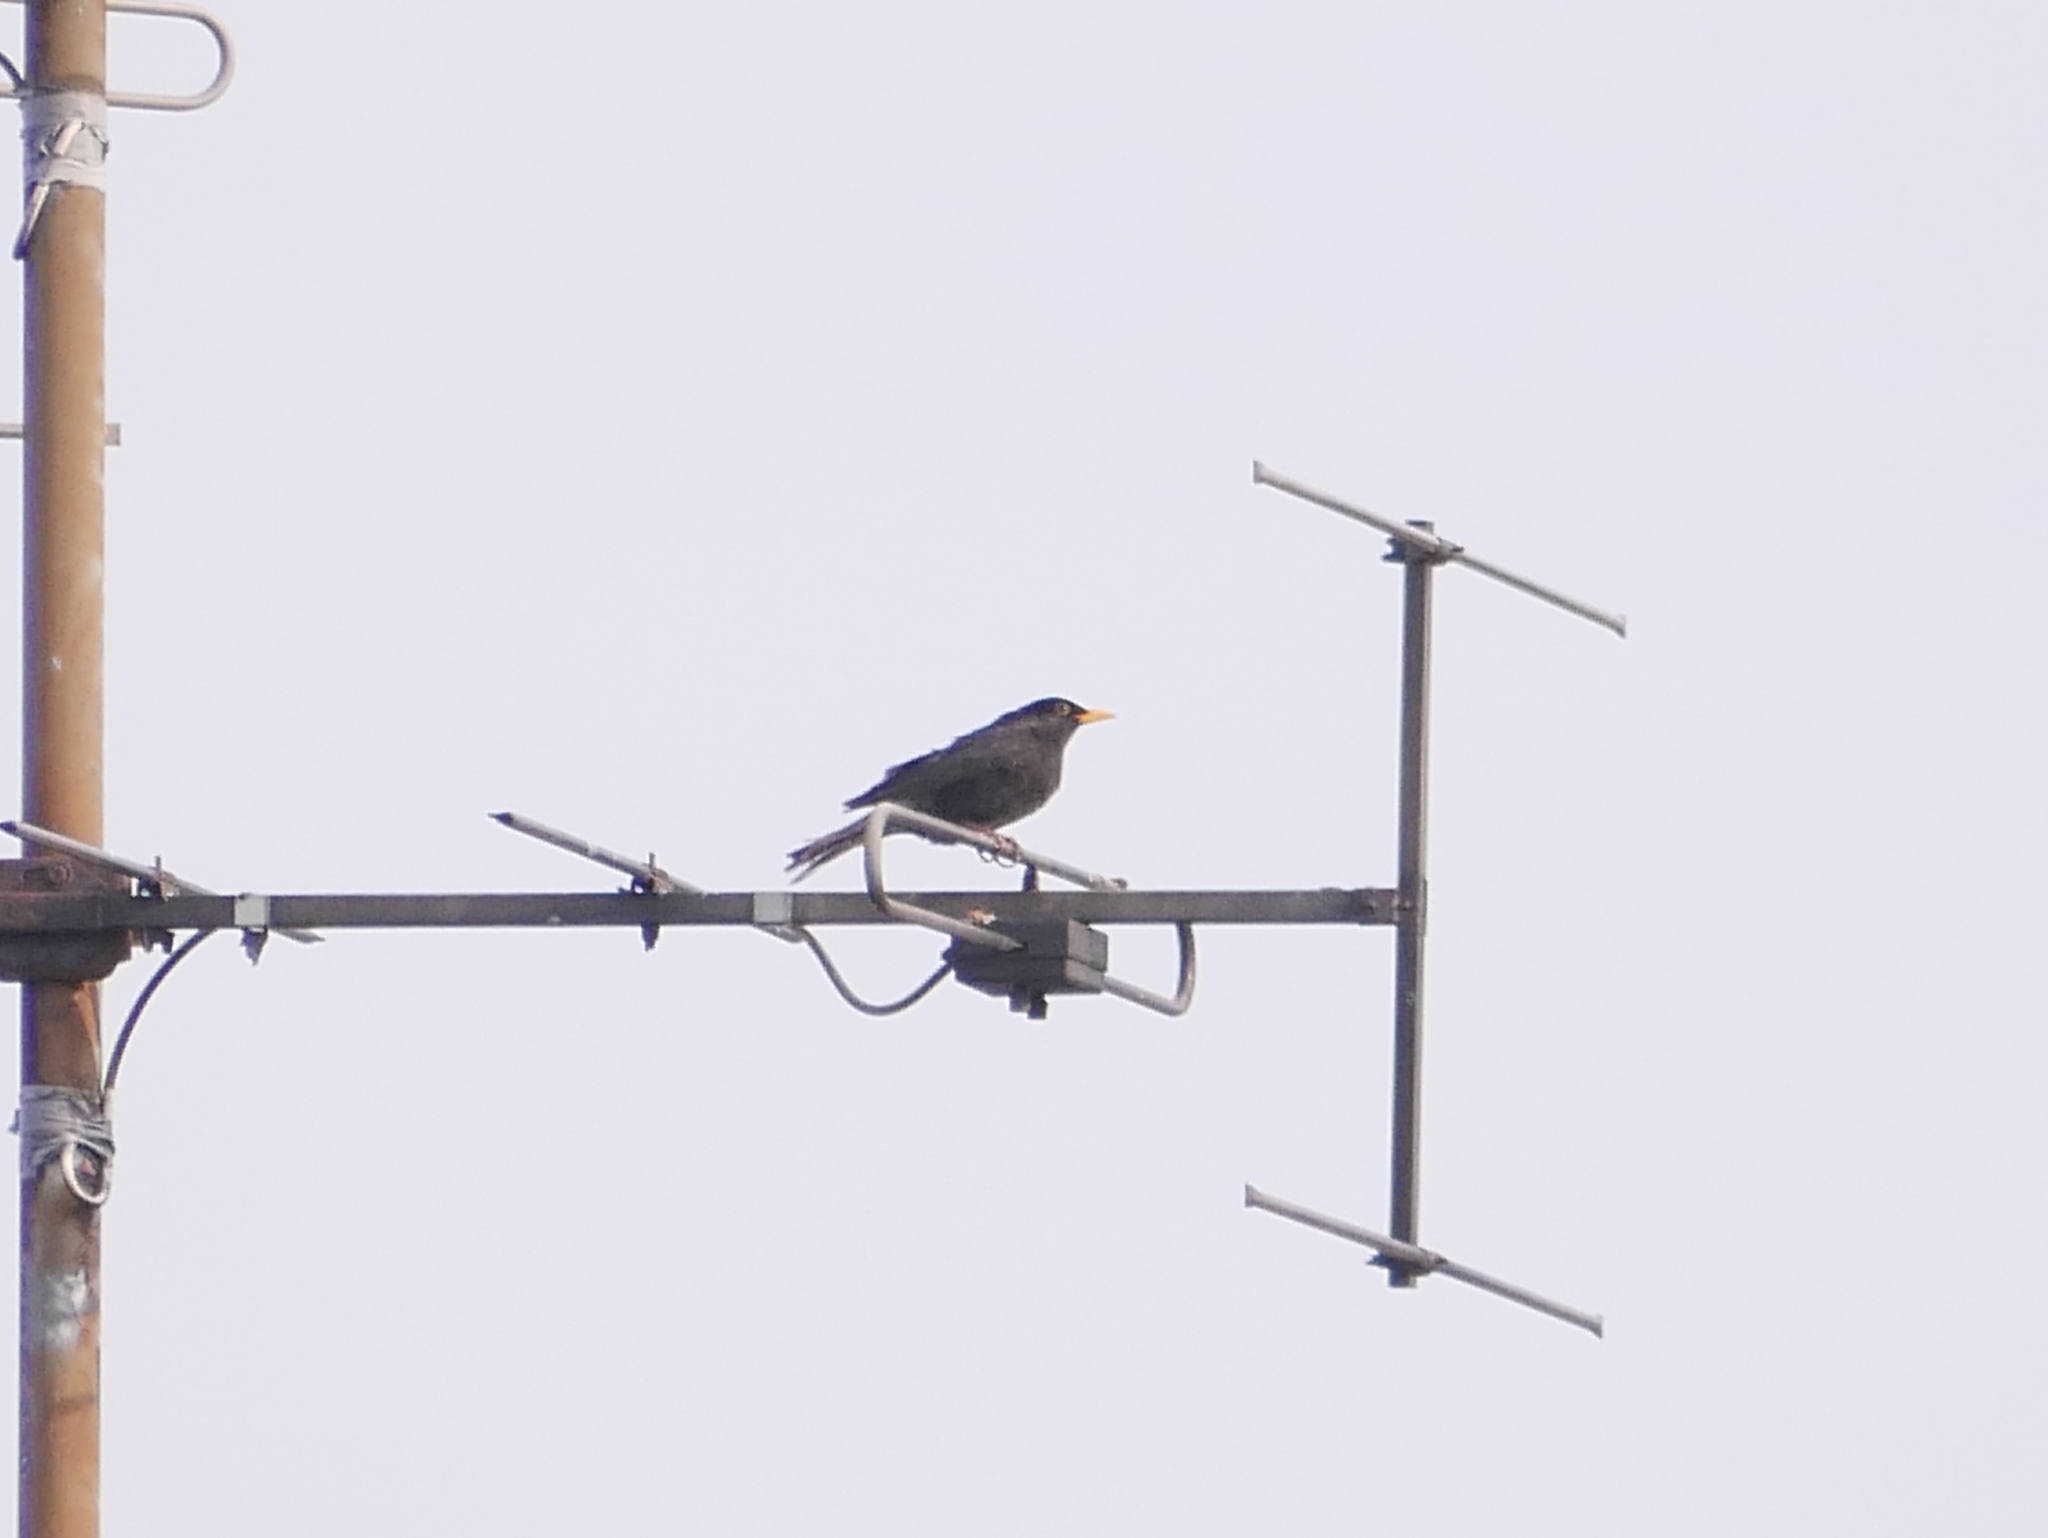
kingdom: Animalia
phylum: Chordata
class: Aves
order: Passeriformes
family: Turdidae
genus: Turdus
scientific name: Turdus merula
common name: Common blackbird
